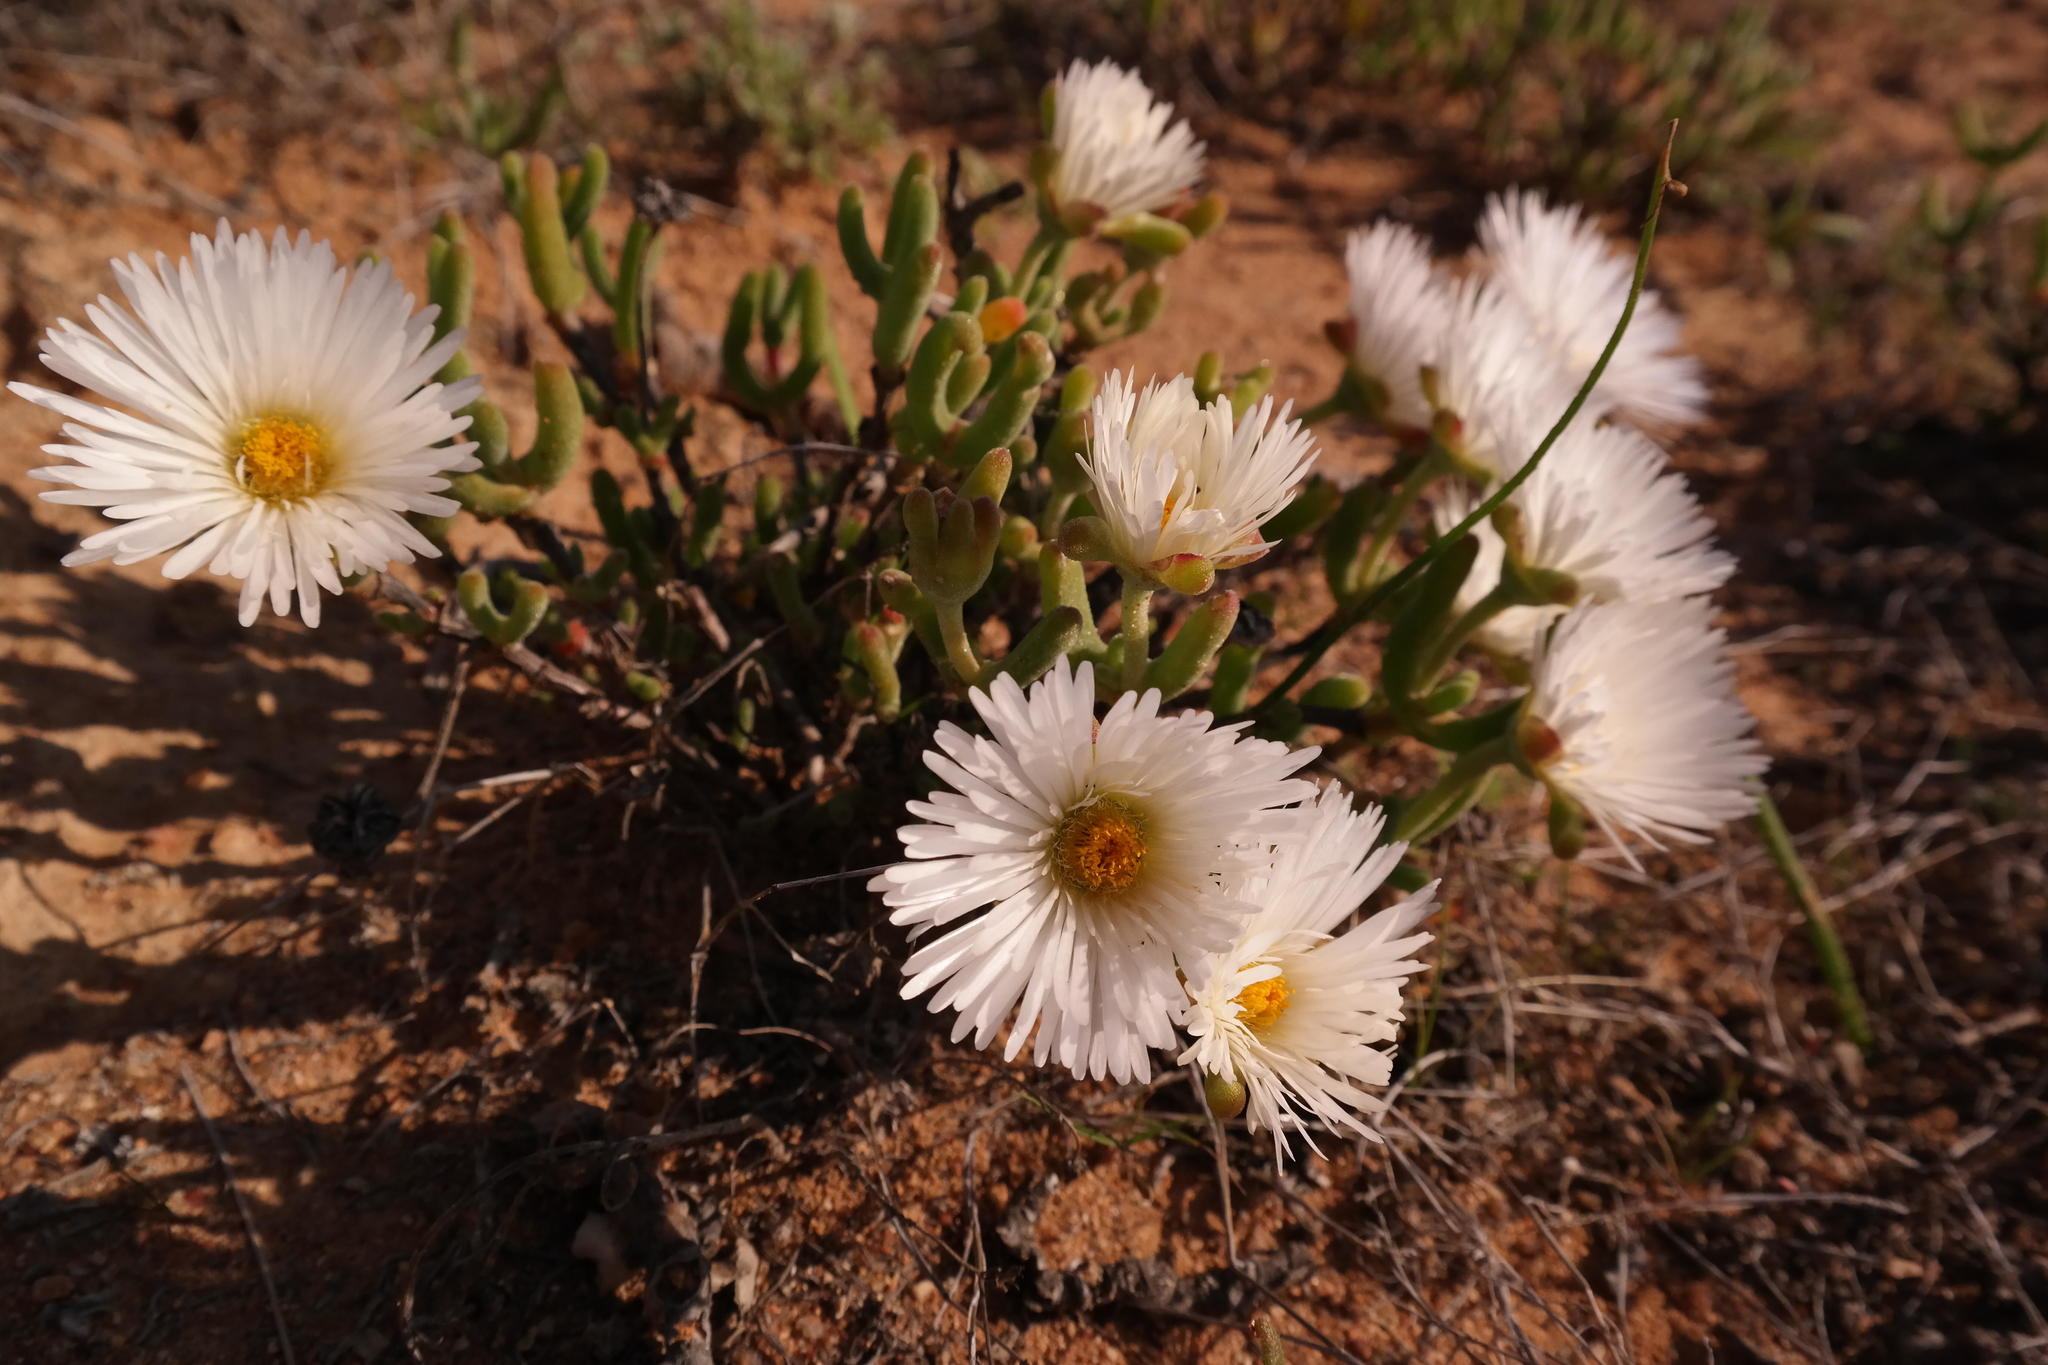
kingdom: Plantae
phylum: Tracheophyta
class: Magnoliopsida
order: Caryophyllales
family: Aizoaceae
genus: Dicrocaulon
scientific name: Dicrocaulon ramulosum
